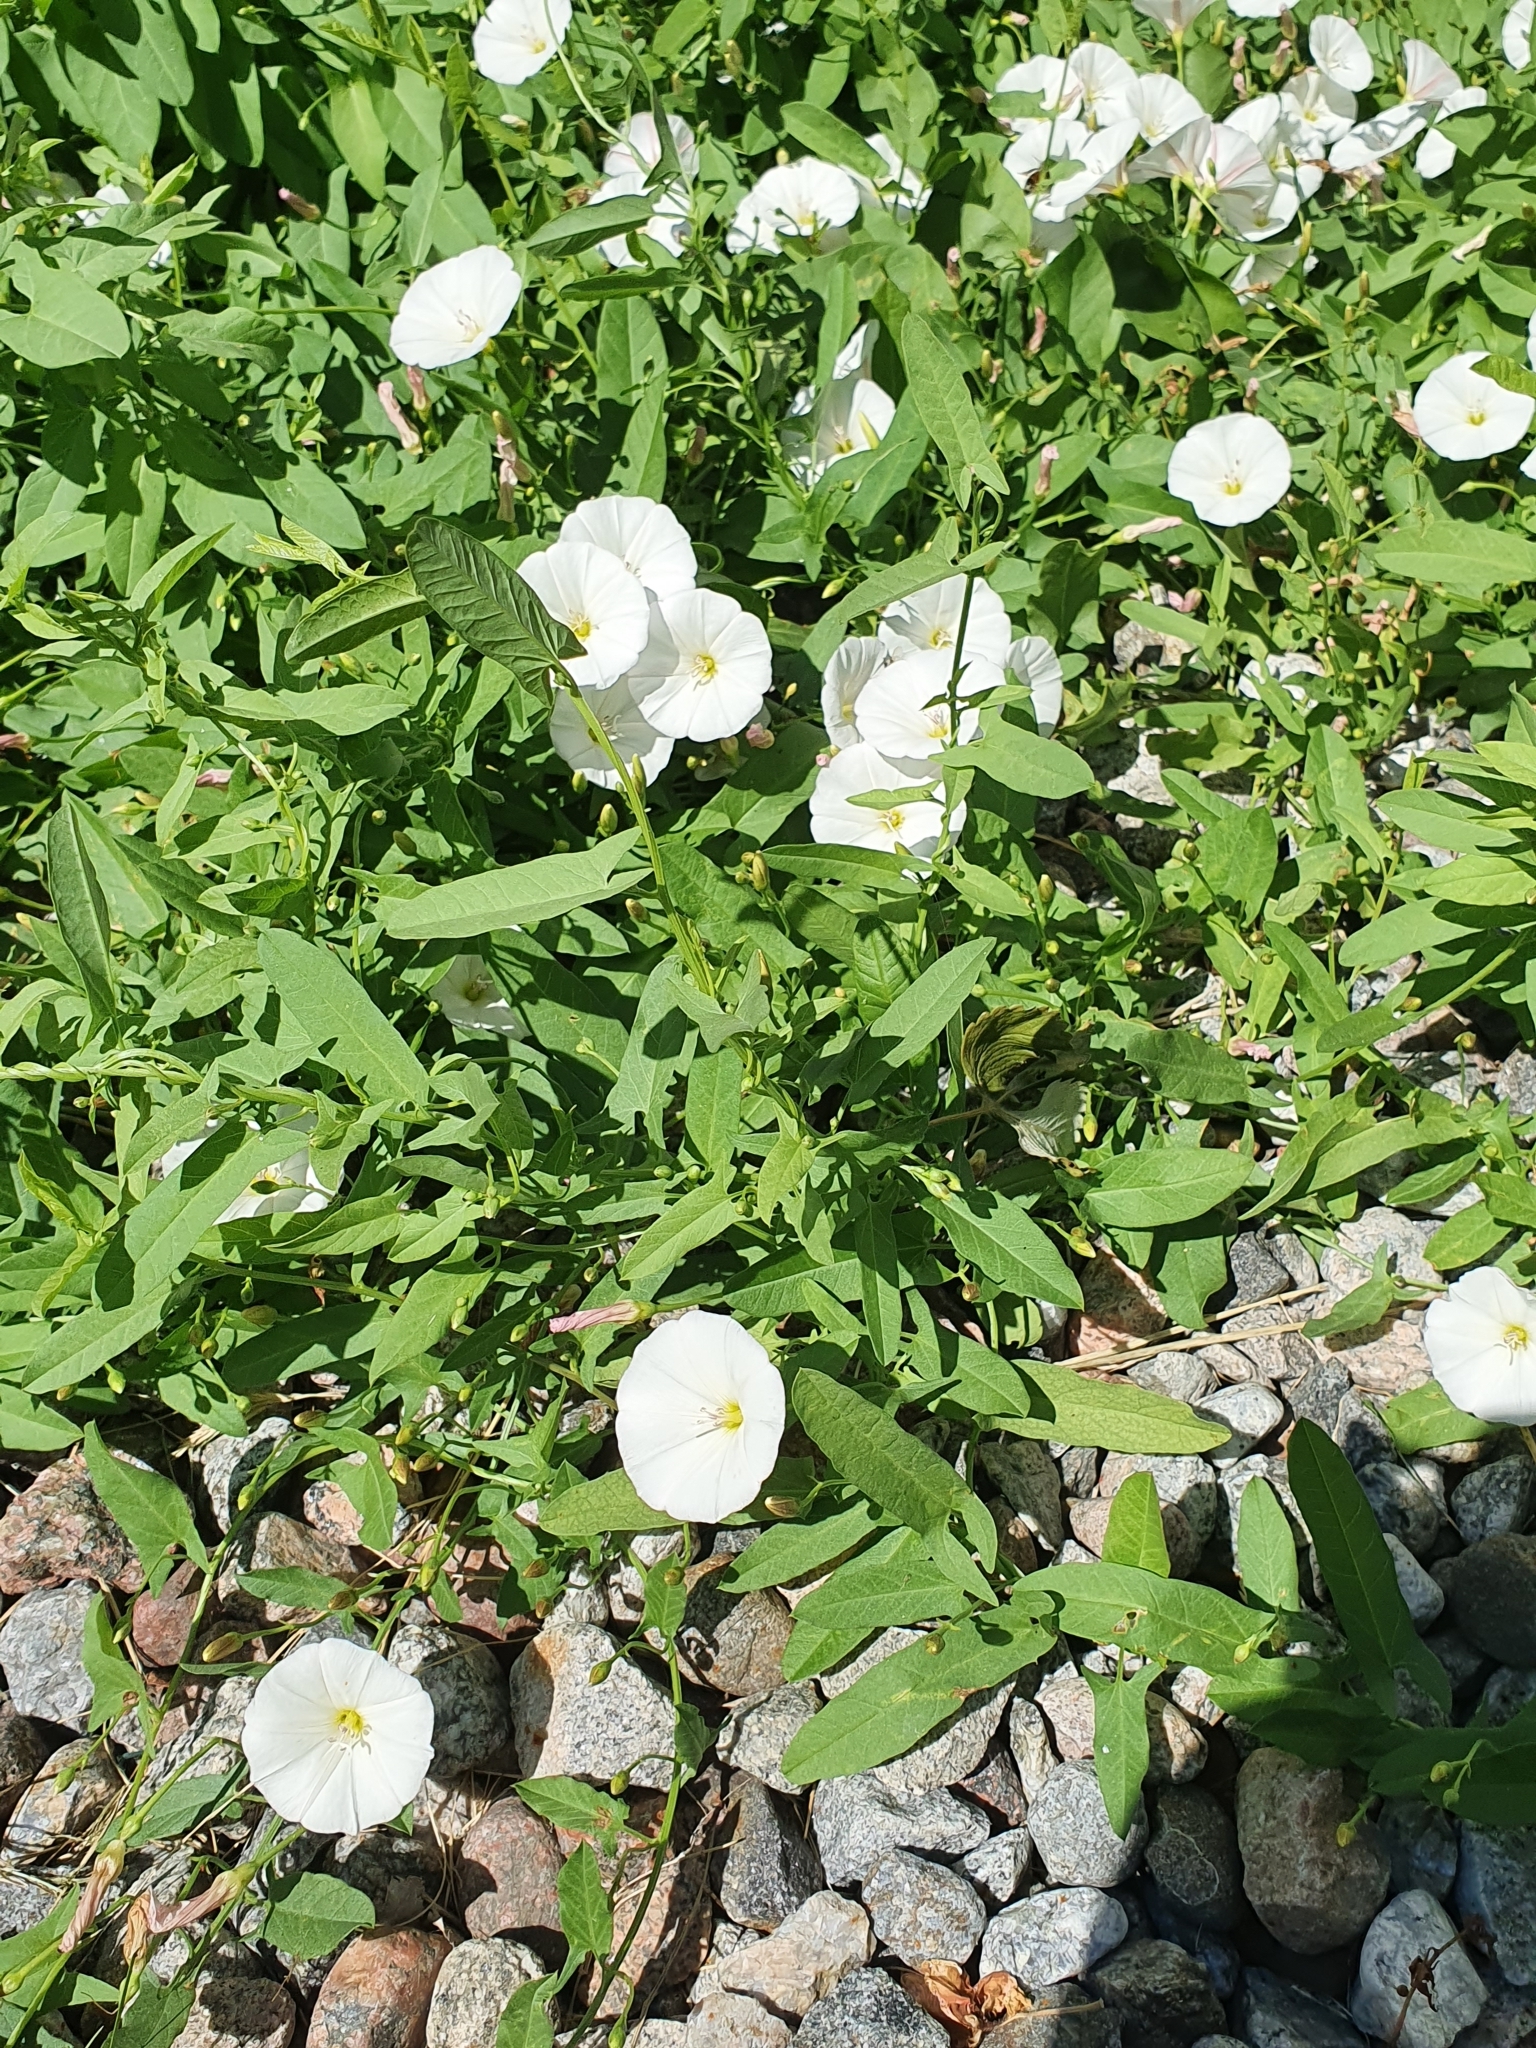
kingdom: Plantae
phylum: Tracheophyta
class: Magnoliopsida
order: Solanales
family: Convolvulaceae
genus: Convolvulus
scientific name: Convolvulus arvensis
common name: Field bindweed
